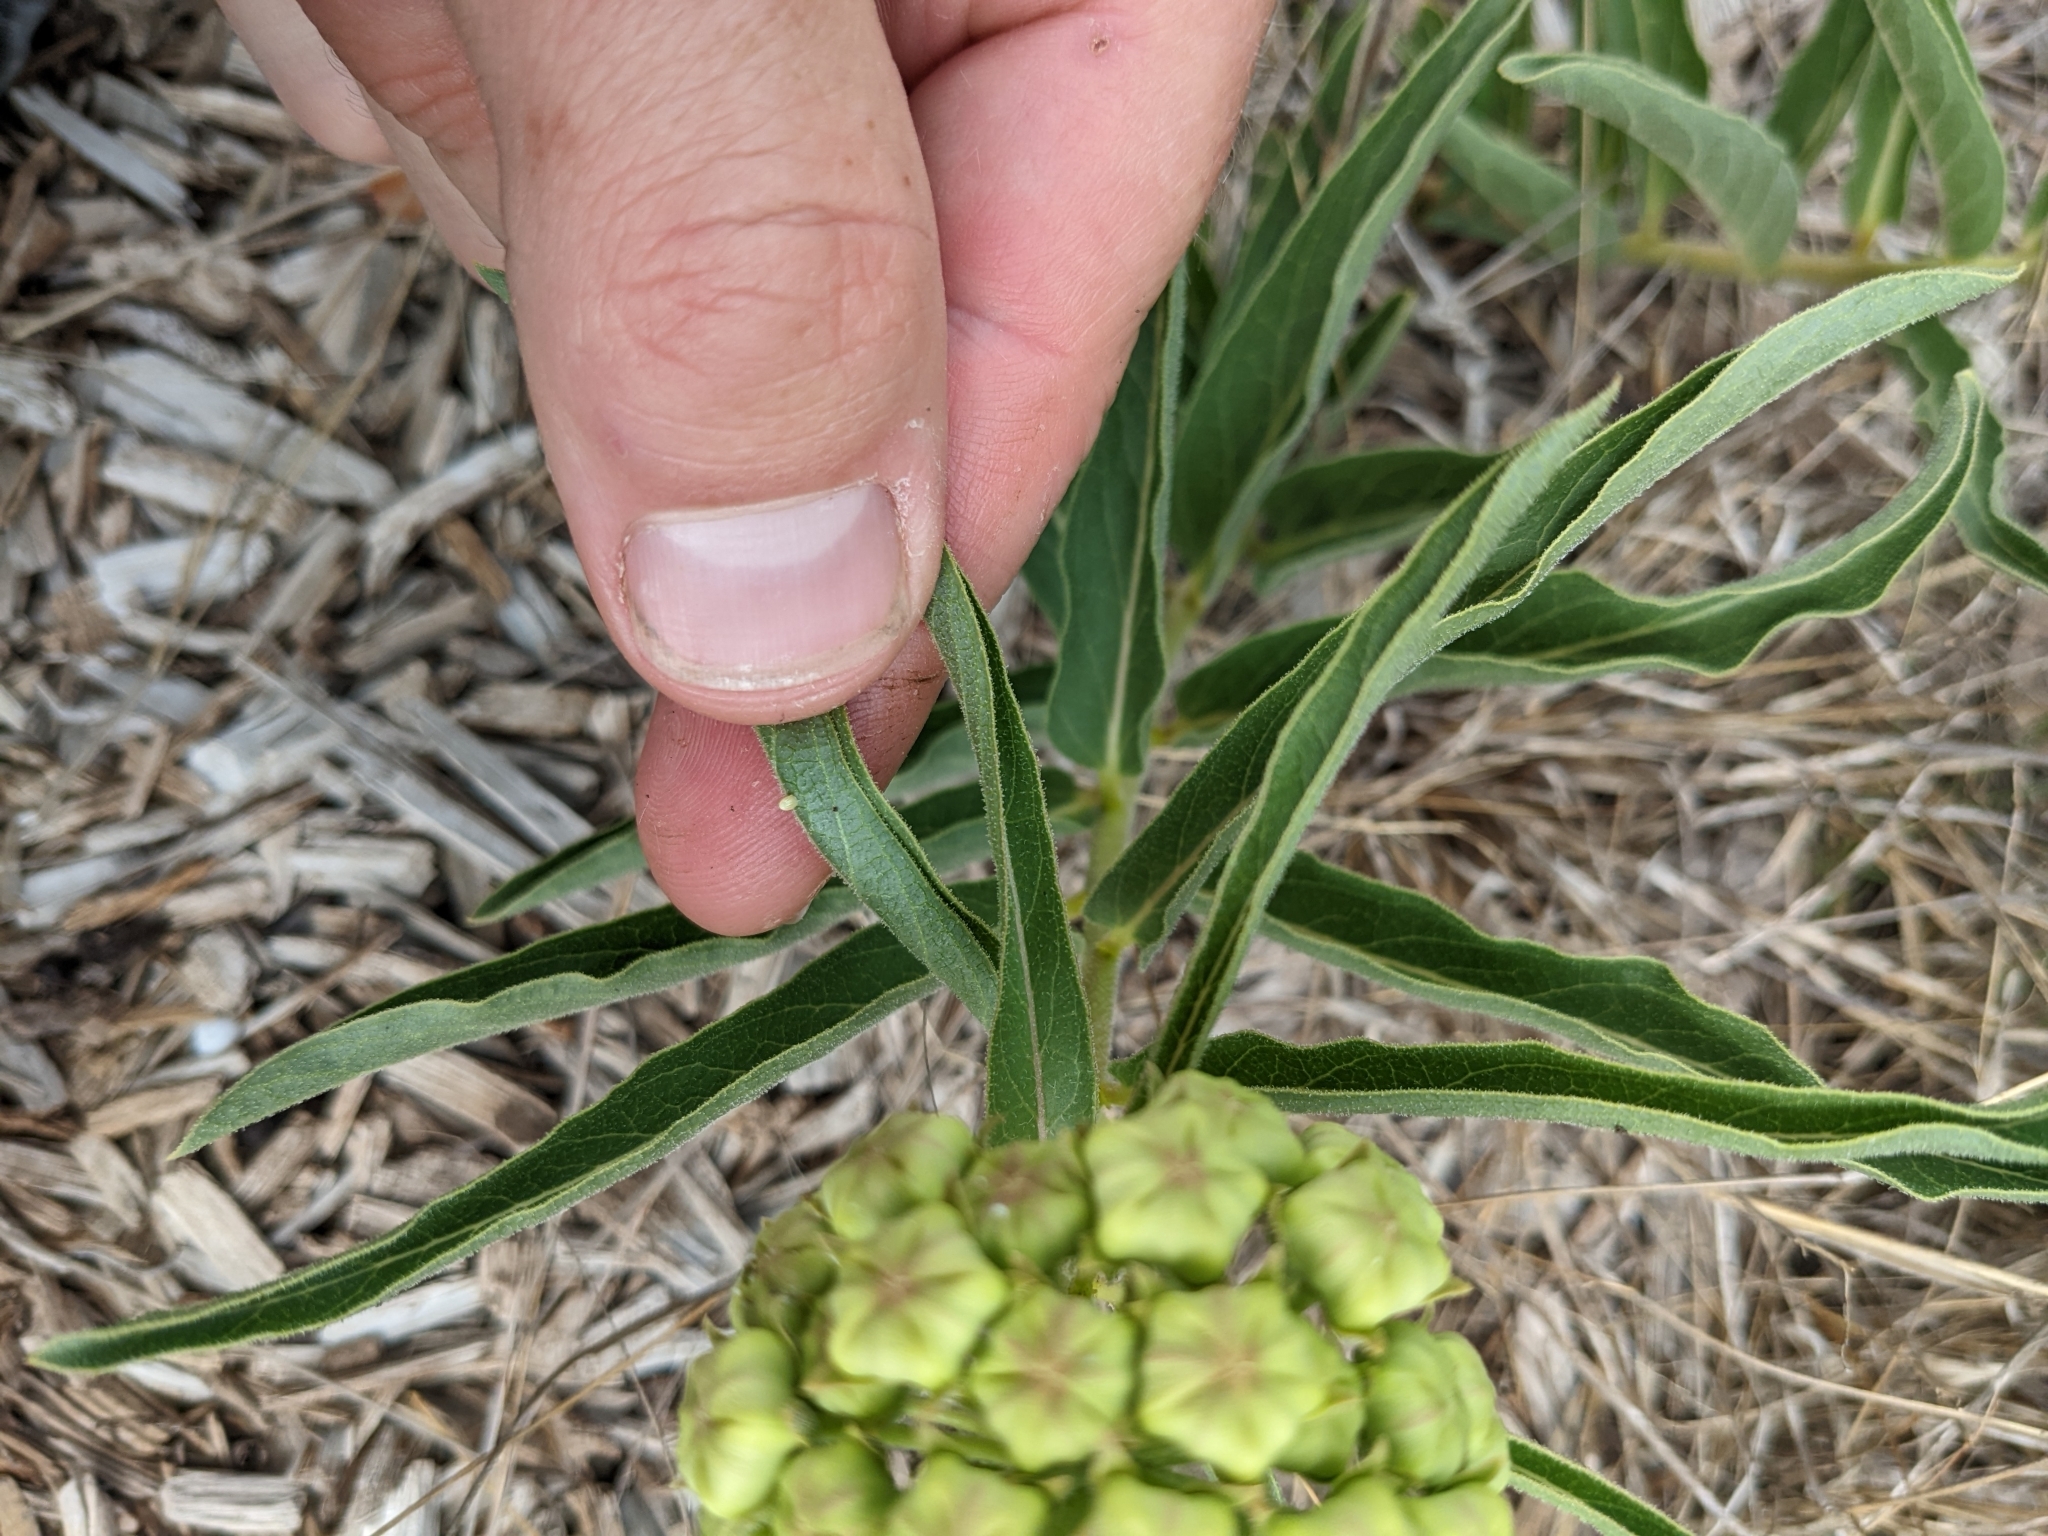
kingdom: Animalia
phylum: Arthropoda
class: Insecta
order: Lepidoptera
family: Nymphalidae
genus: Danaus
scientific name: Danaus plexippus
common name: Monarch
